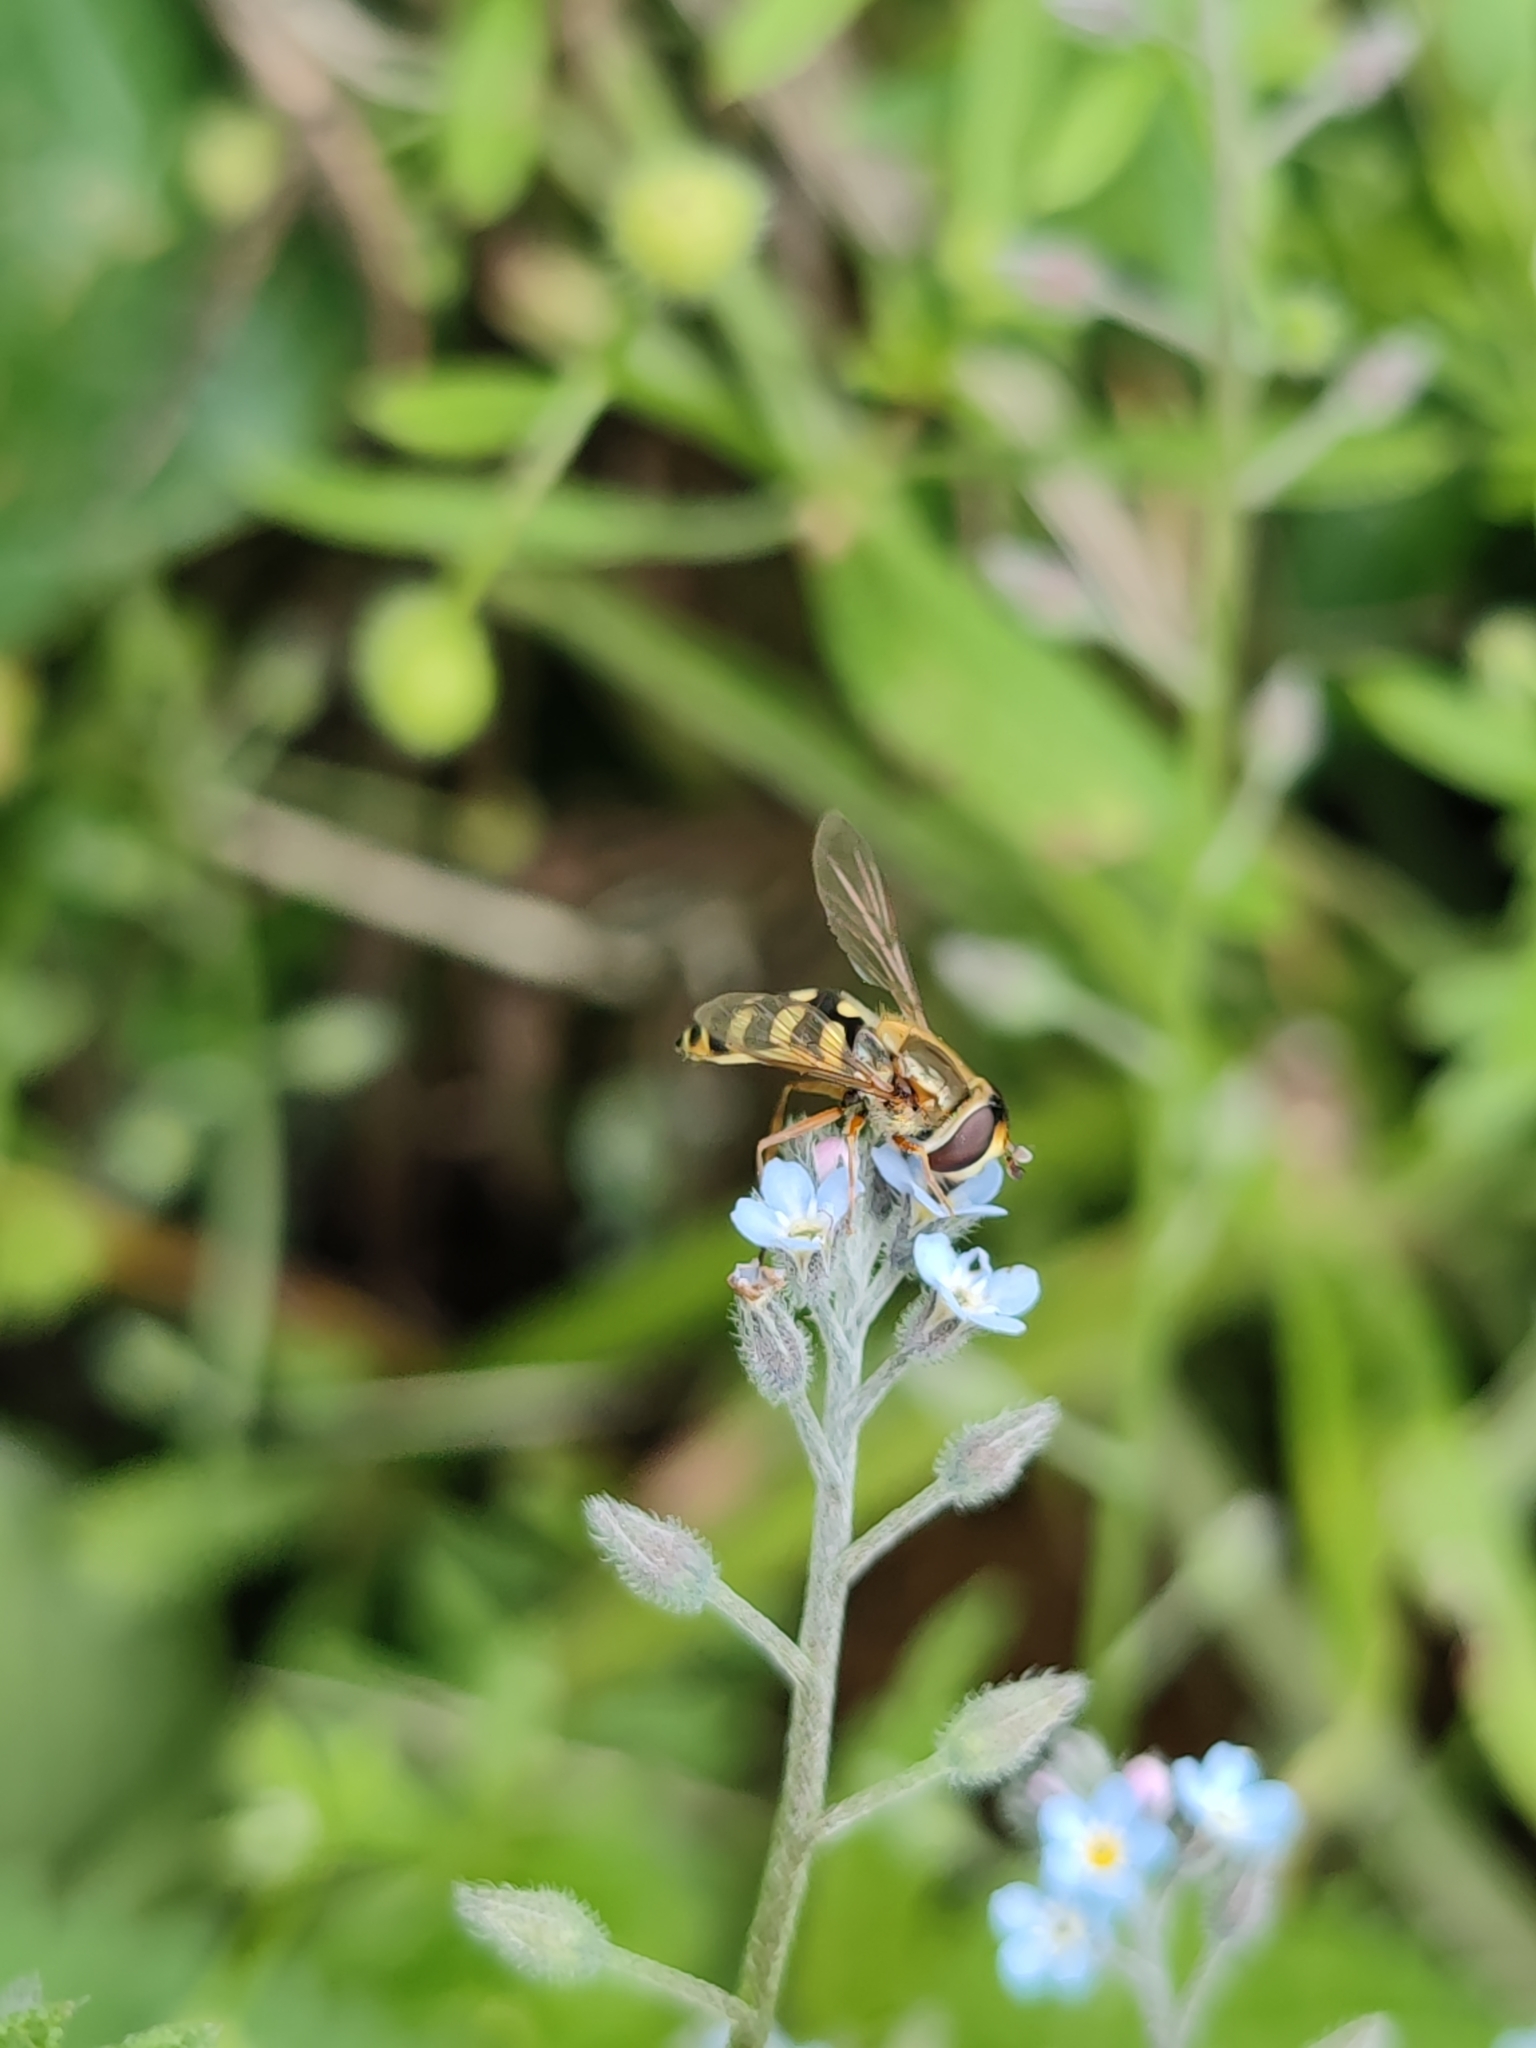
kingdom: Animalia
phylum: Arthropoda
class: Insecta
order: Diptera
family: Syrphidae
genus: Eupeodes
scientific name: Eupeodes corollae
